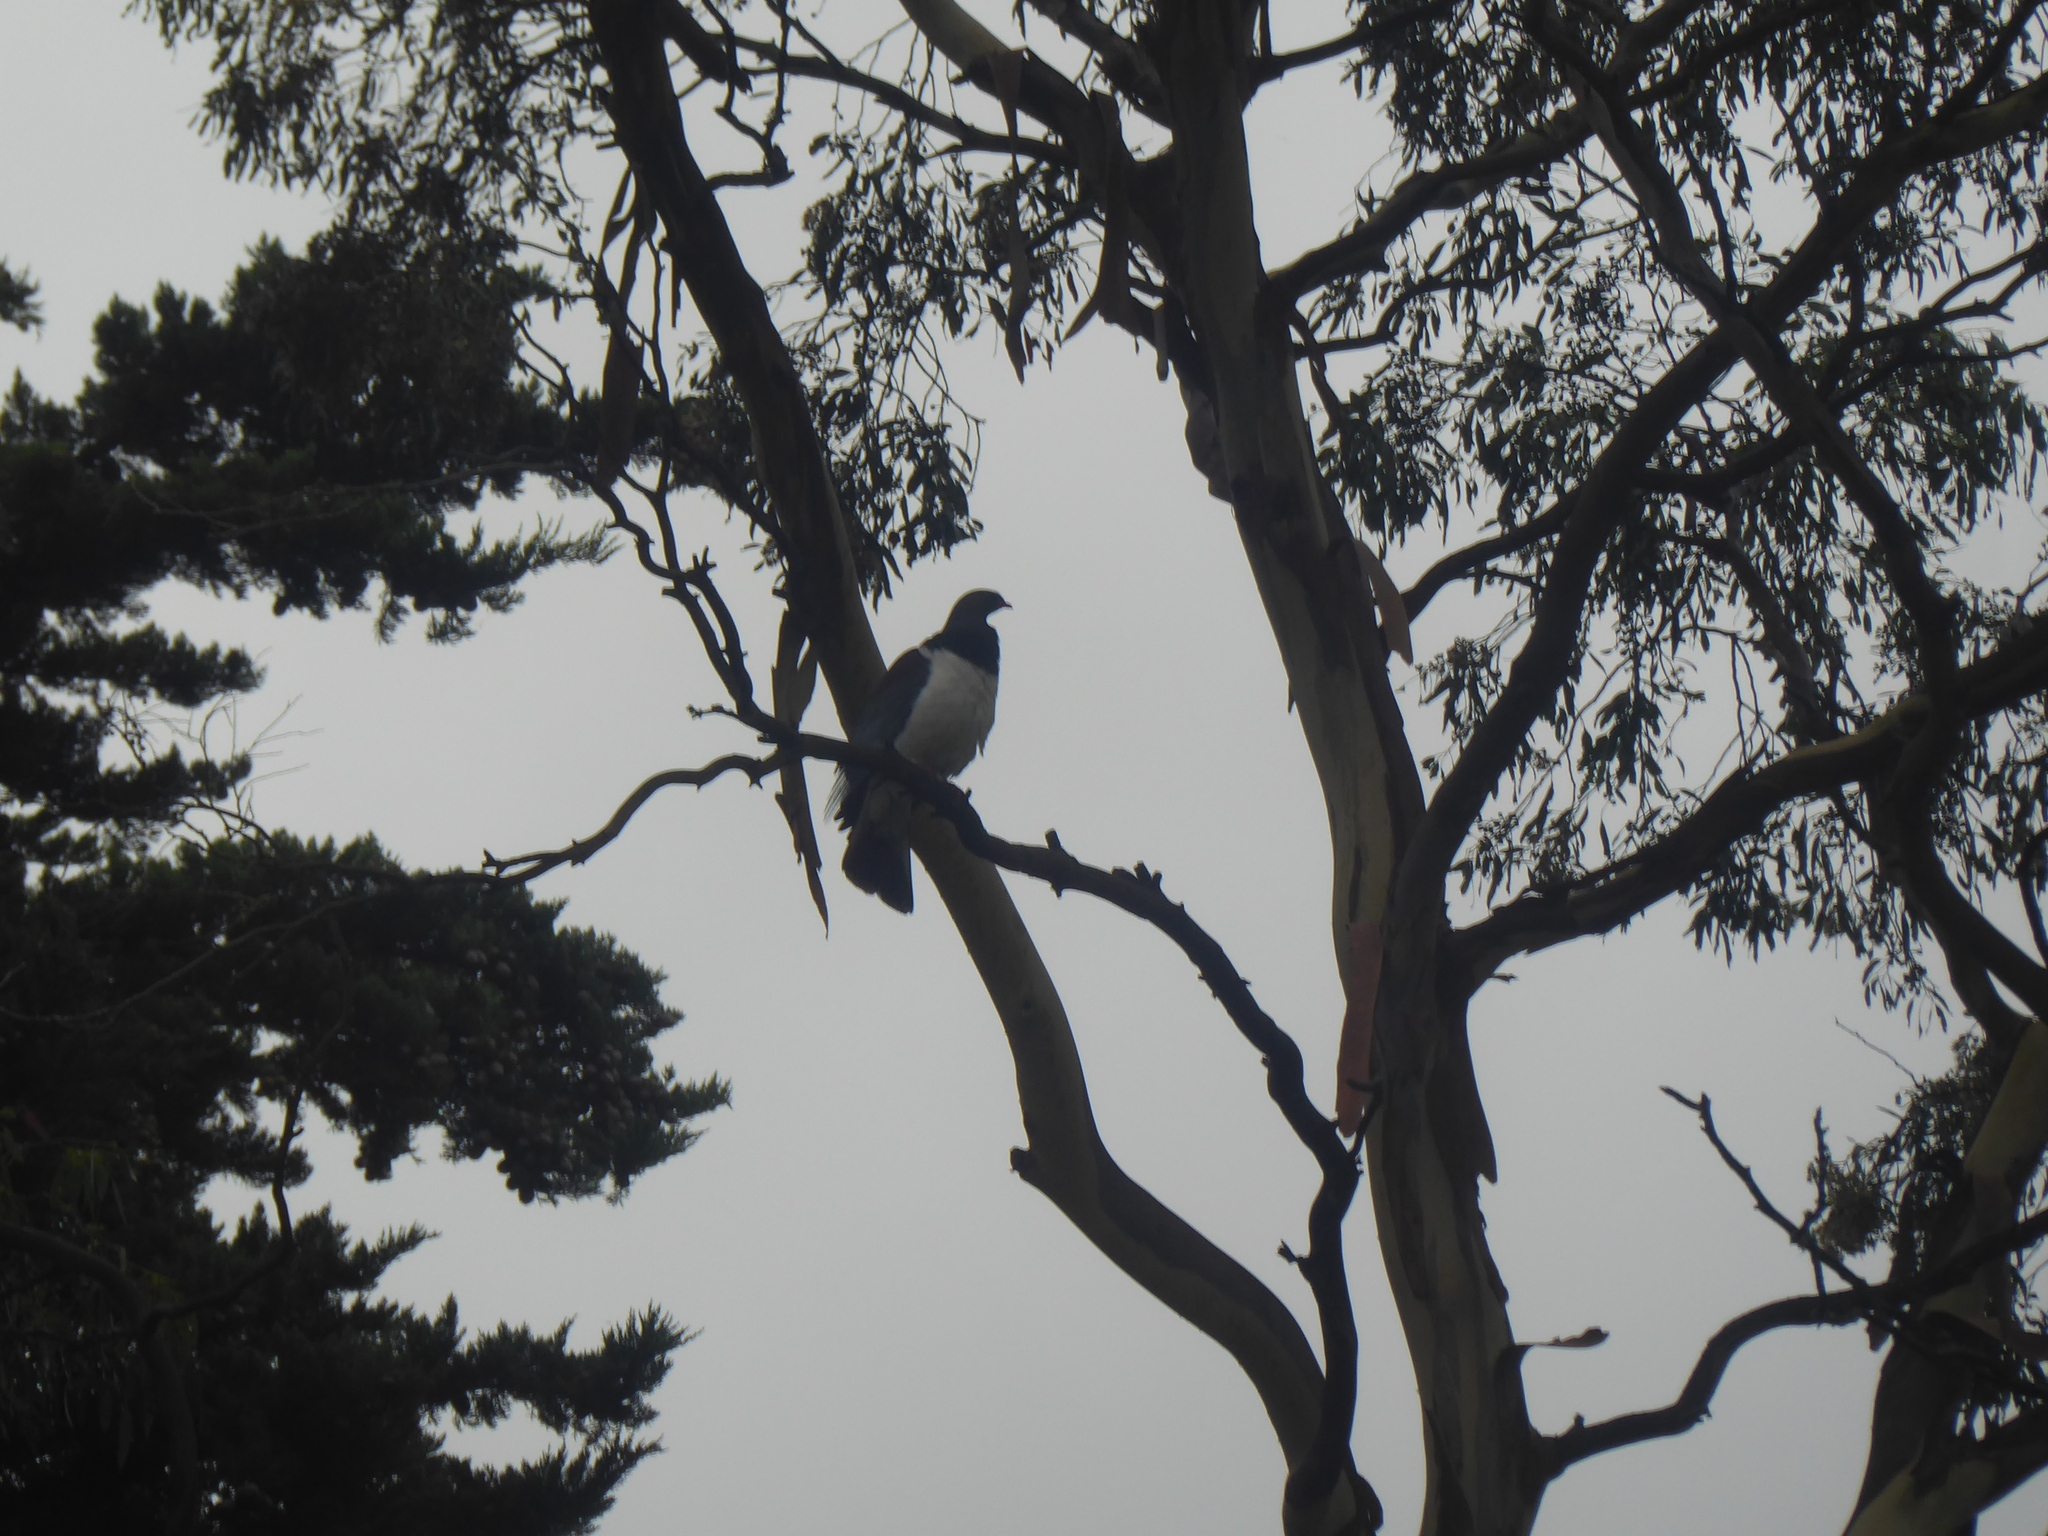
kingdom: Animalia
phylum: Chordata
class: Aves
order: Columbiformes
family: Columbidae
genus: Hemiphaga
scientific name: Hemiphaga novaeseelandiae
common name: New zealand pigeon
